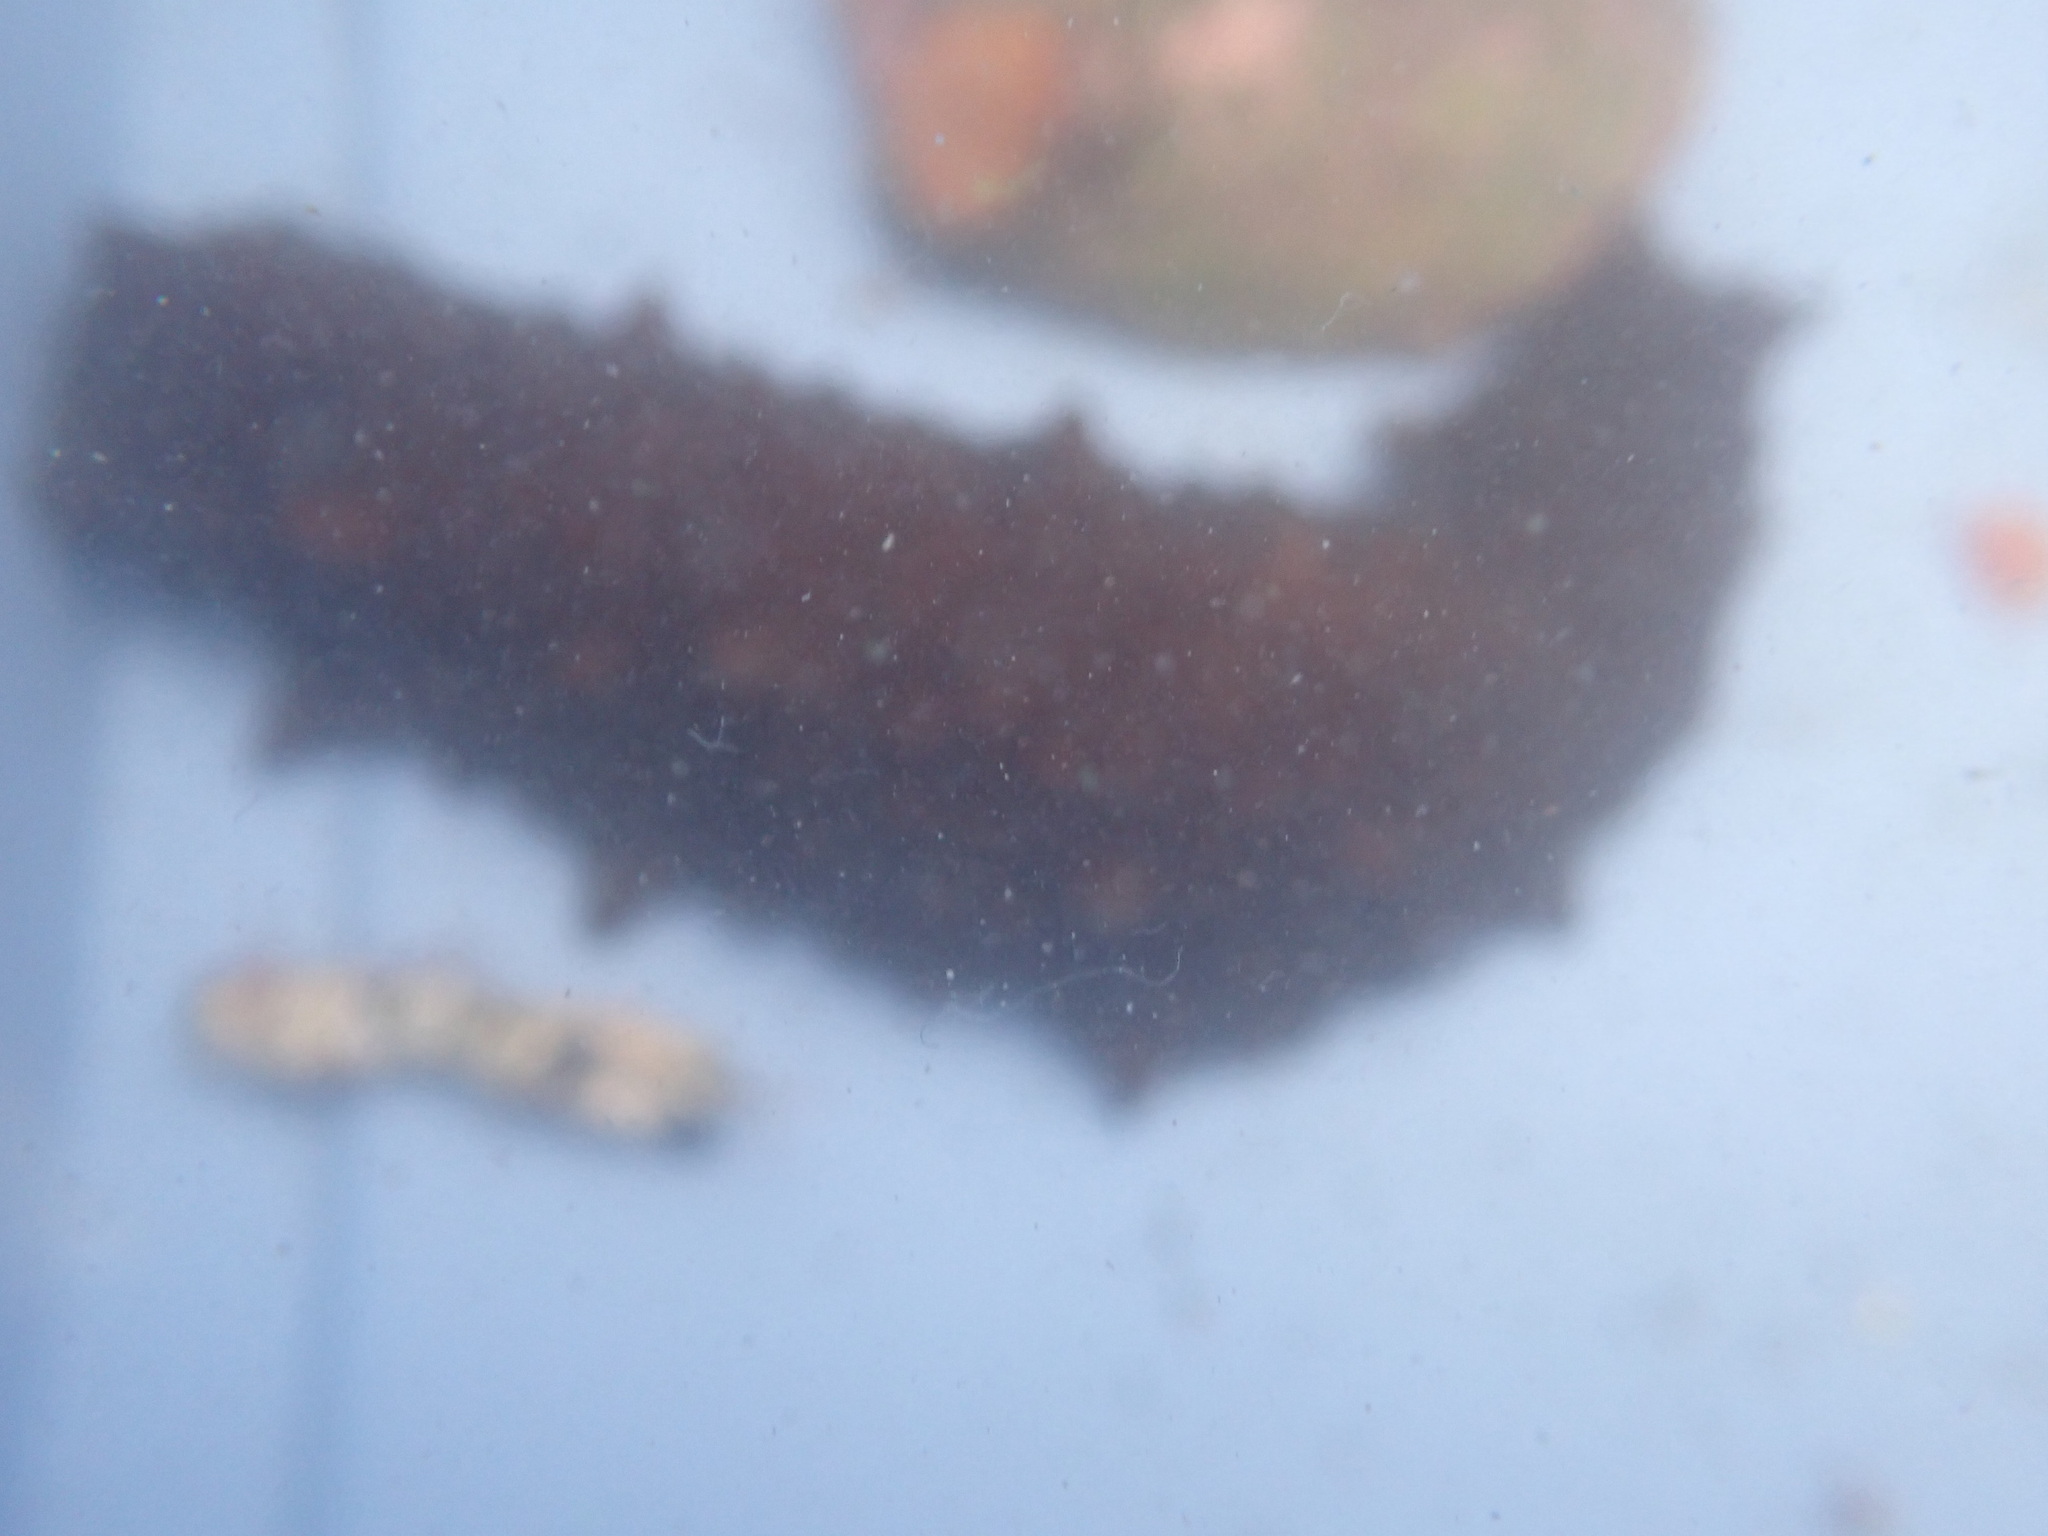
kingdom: Animalia
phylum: Echinodermata
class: Holothuroidea
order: Synallactida
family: Stichopodidae
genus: Australostichopus
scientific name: Australostichopus mollis
